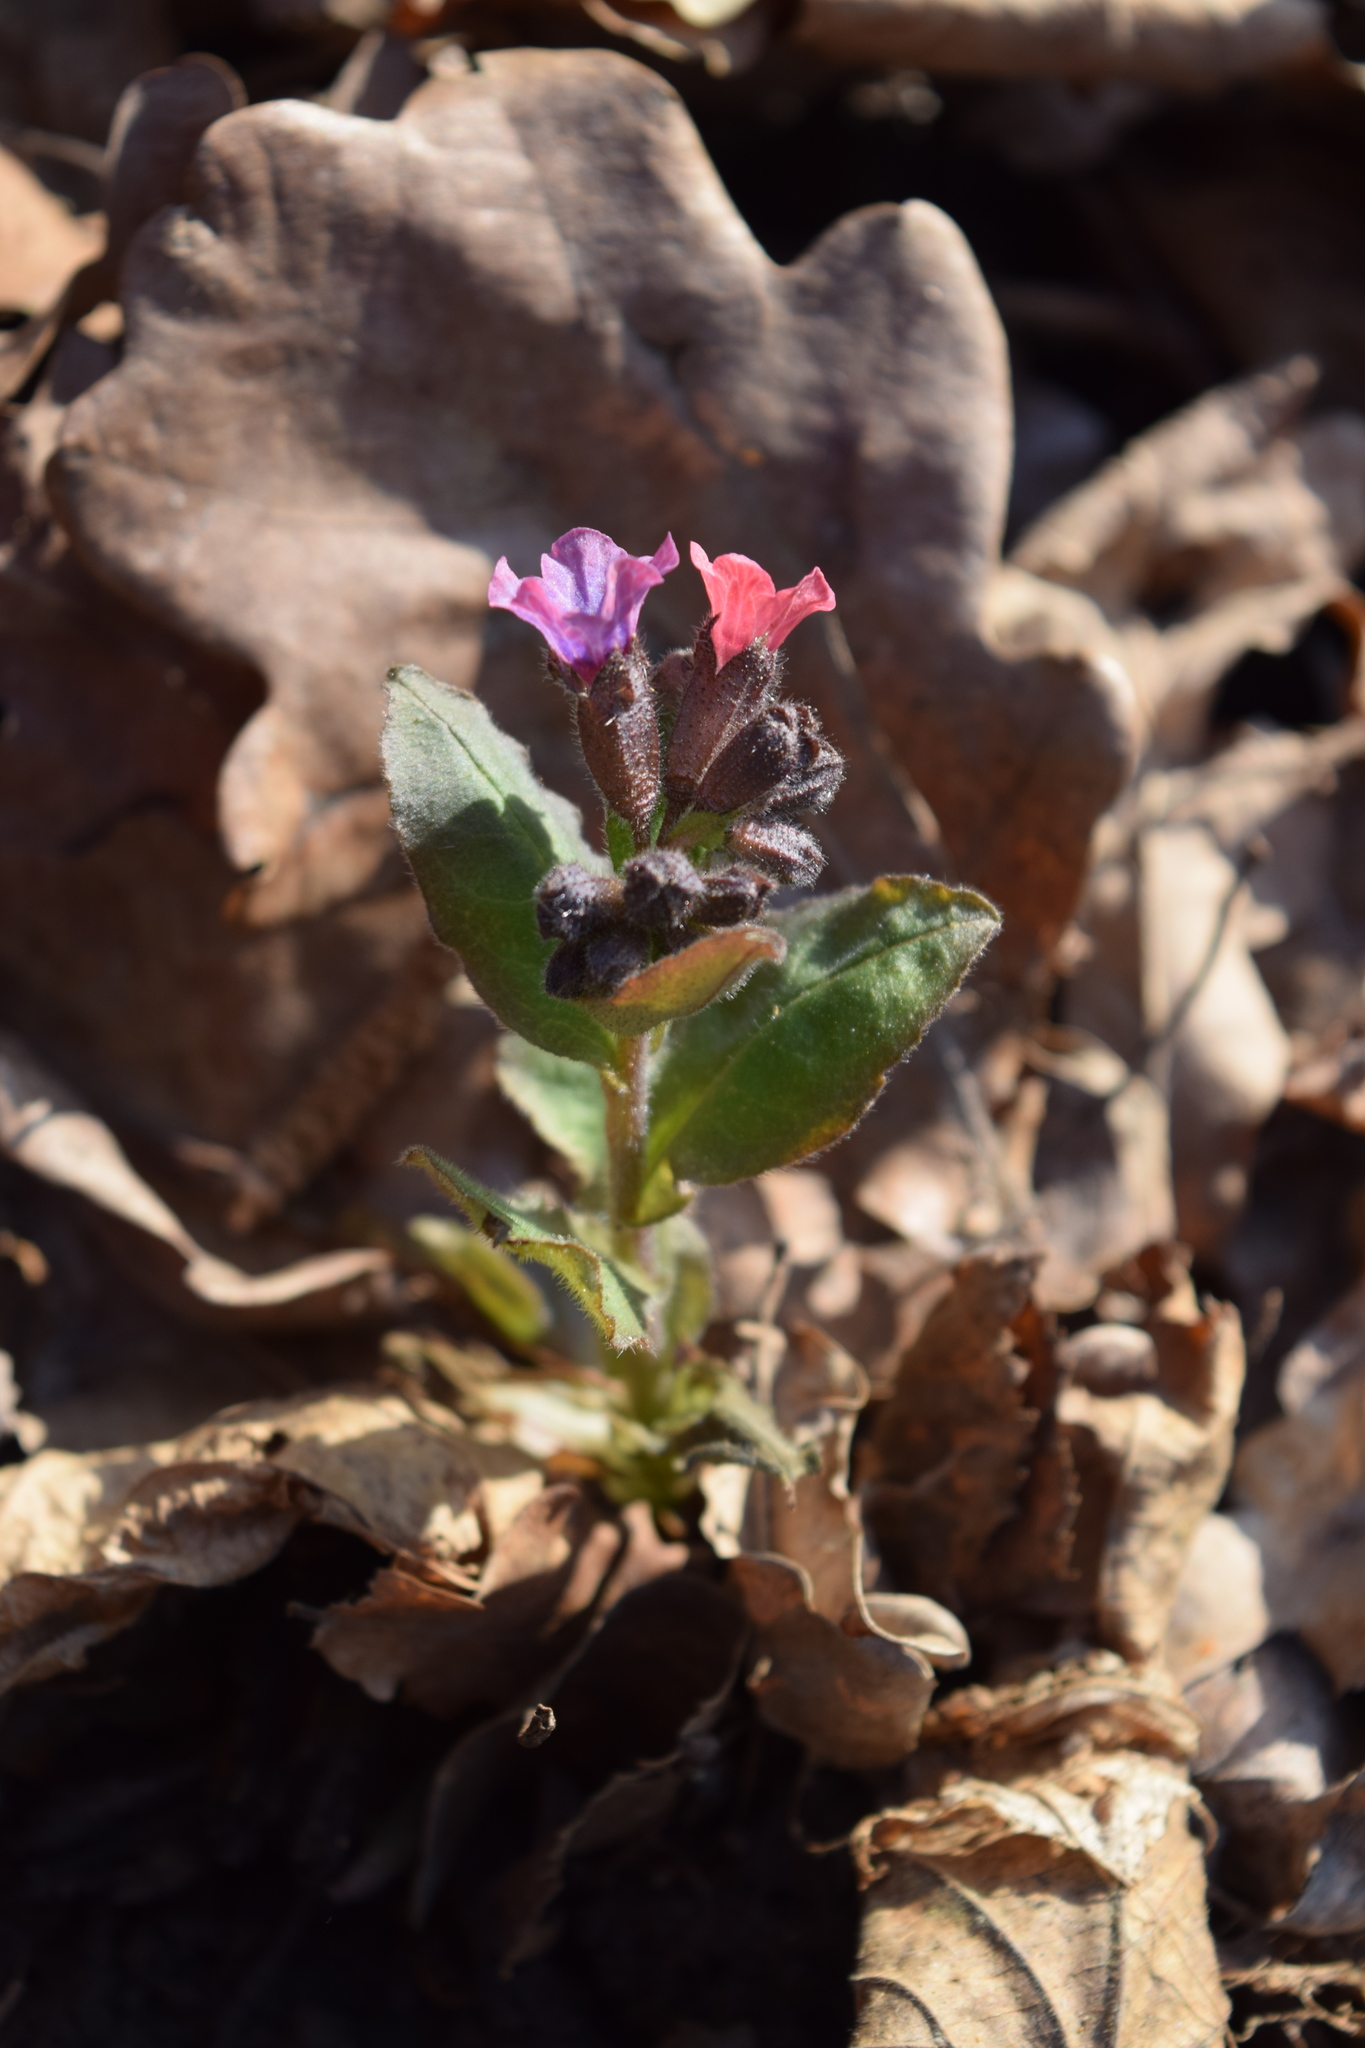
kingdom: Plantae
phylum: Tracheophyta
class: Magnoliopsida
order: Boraginales
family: Boraginaceae
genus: Pulmonaria
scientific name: Pulmonaria obscura
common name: Suffolk lungwort
